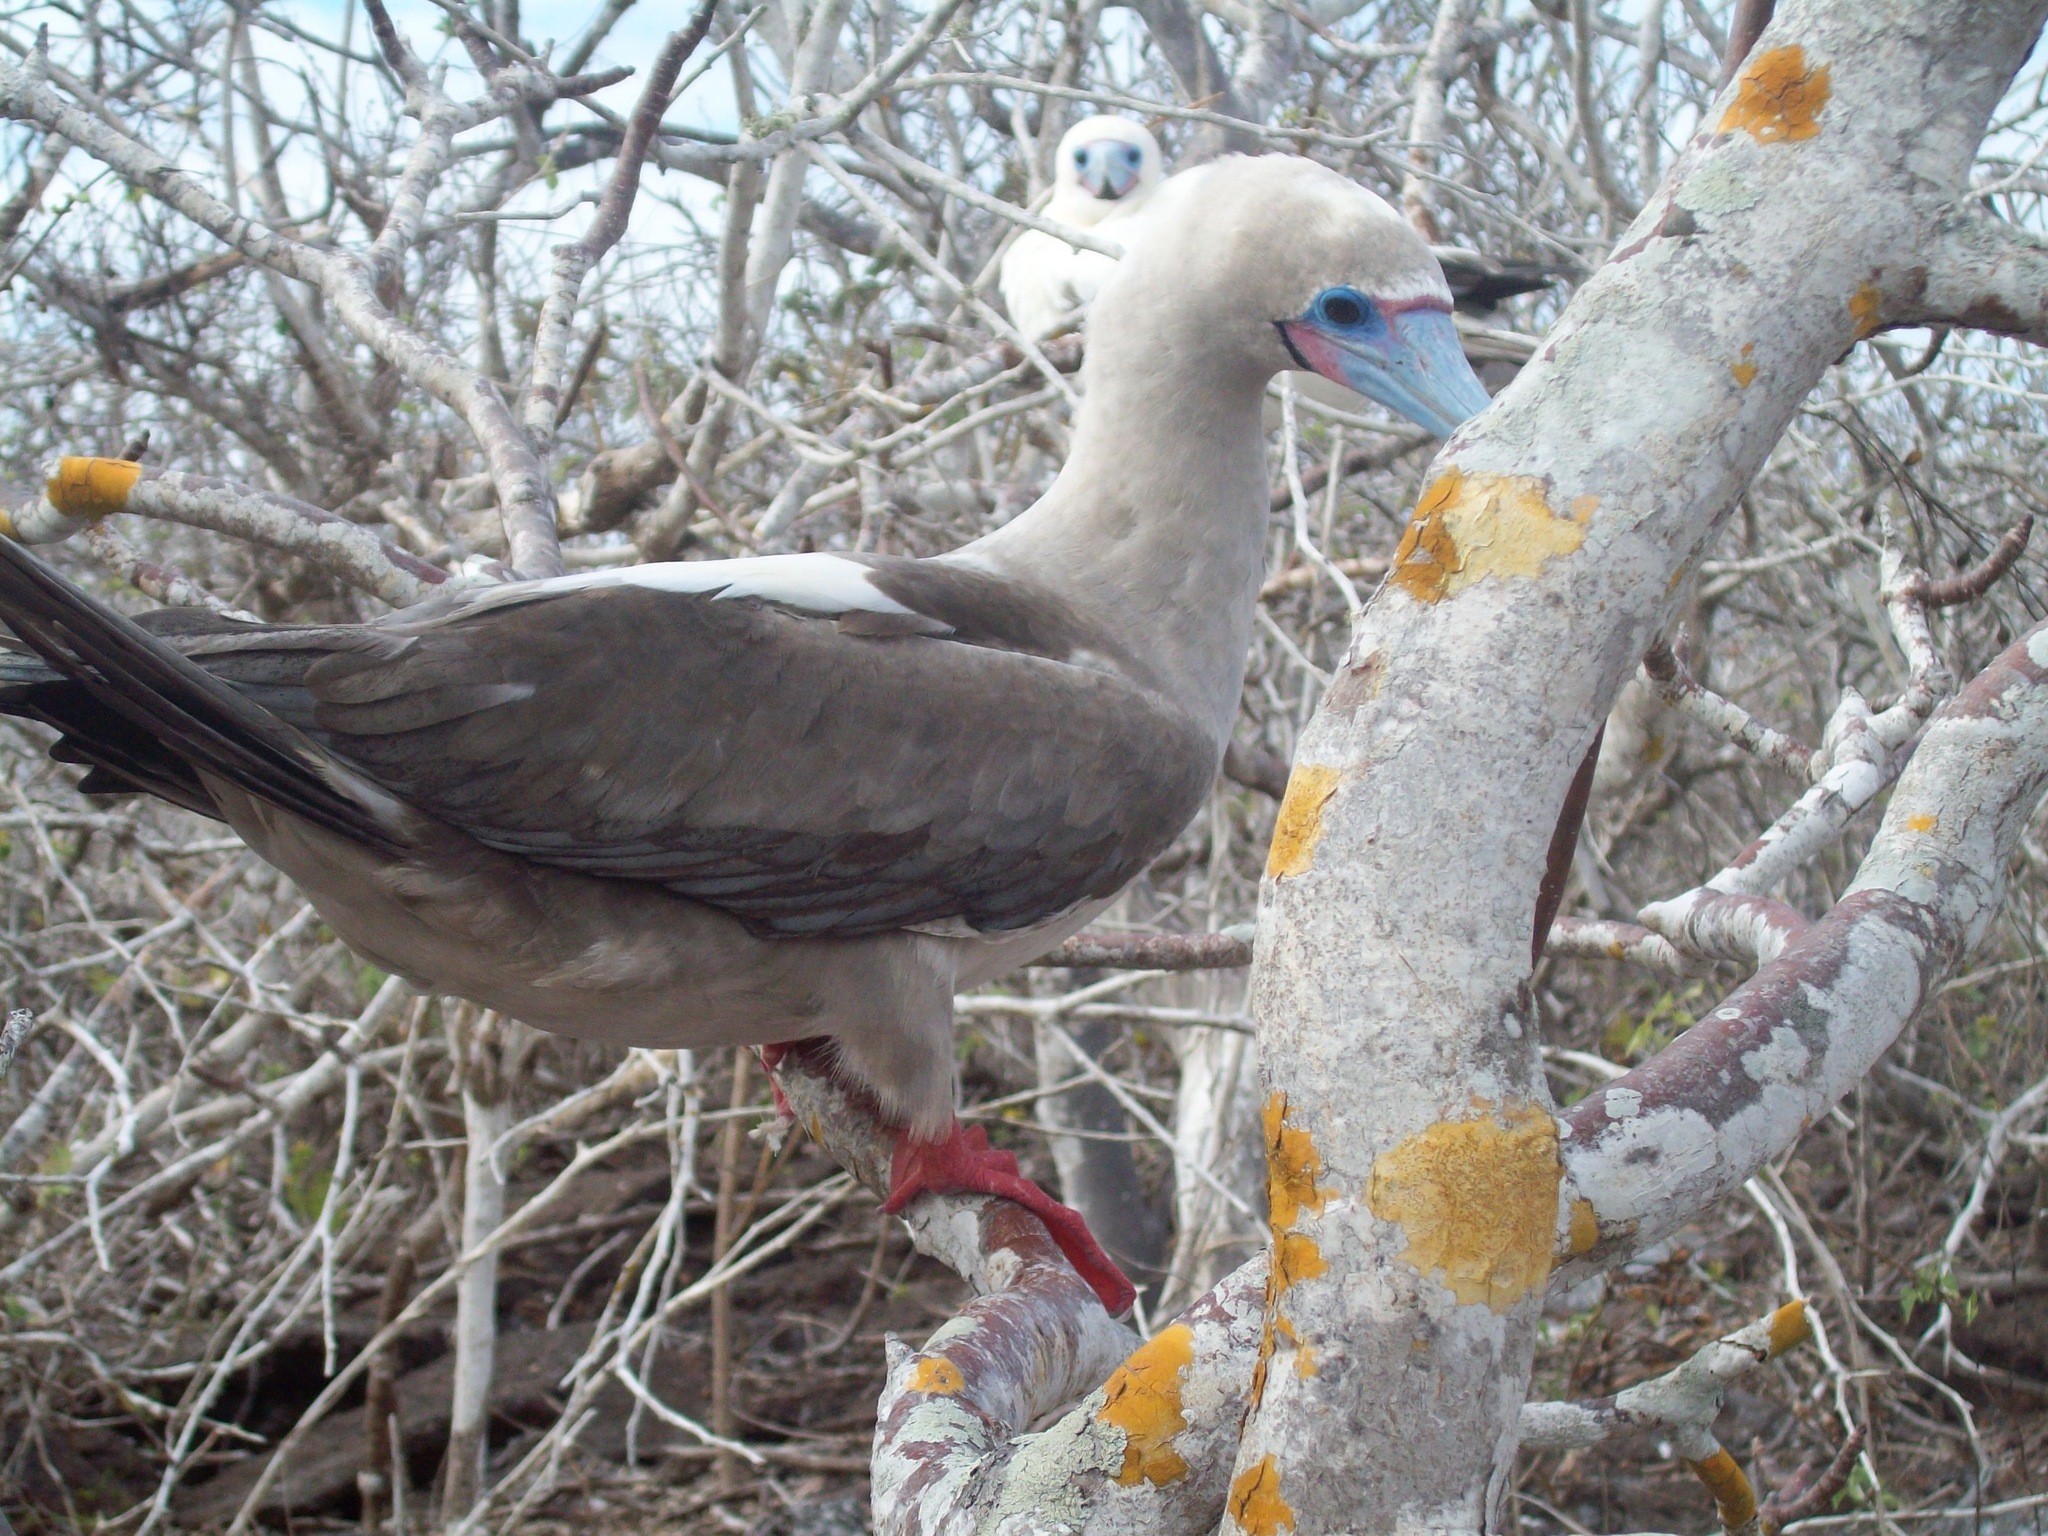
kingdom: Animalia
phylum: Chordata
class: Aves
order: Suliformes
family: Sulidae
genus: Sula
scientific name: Sula sula
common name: Red-footed booby
